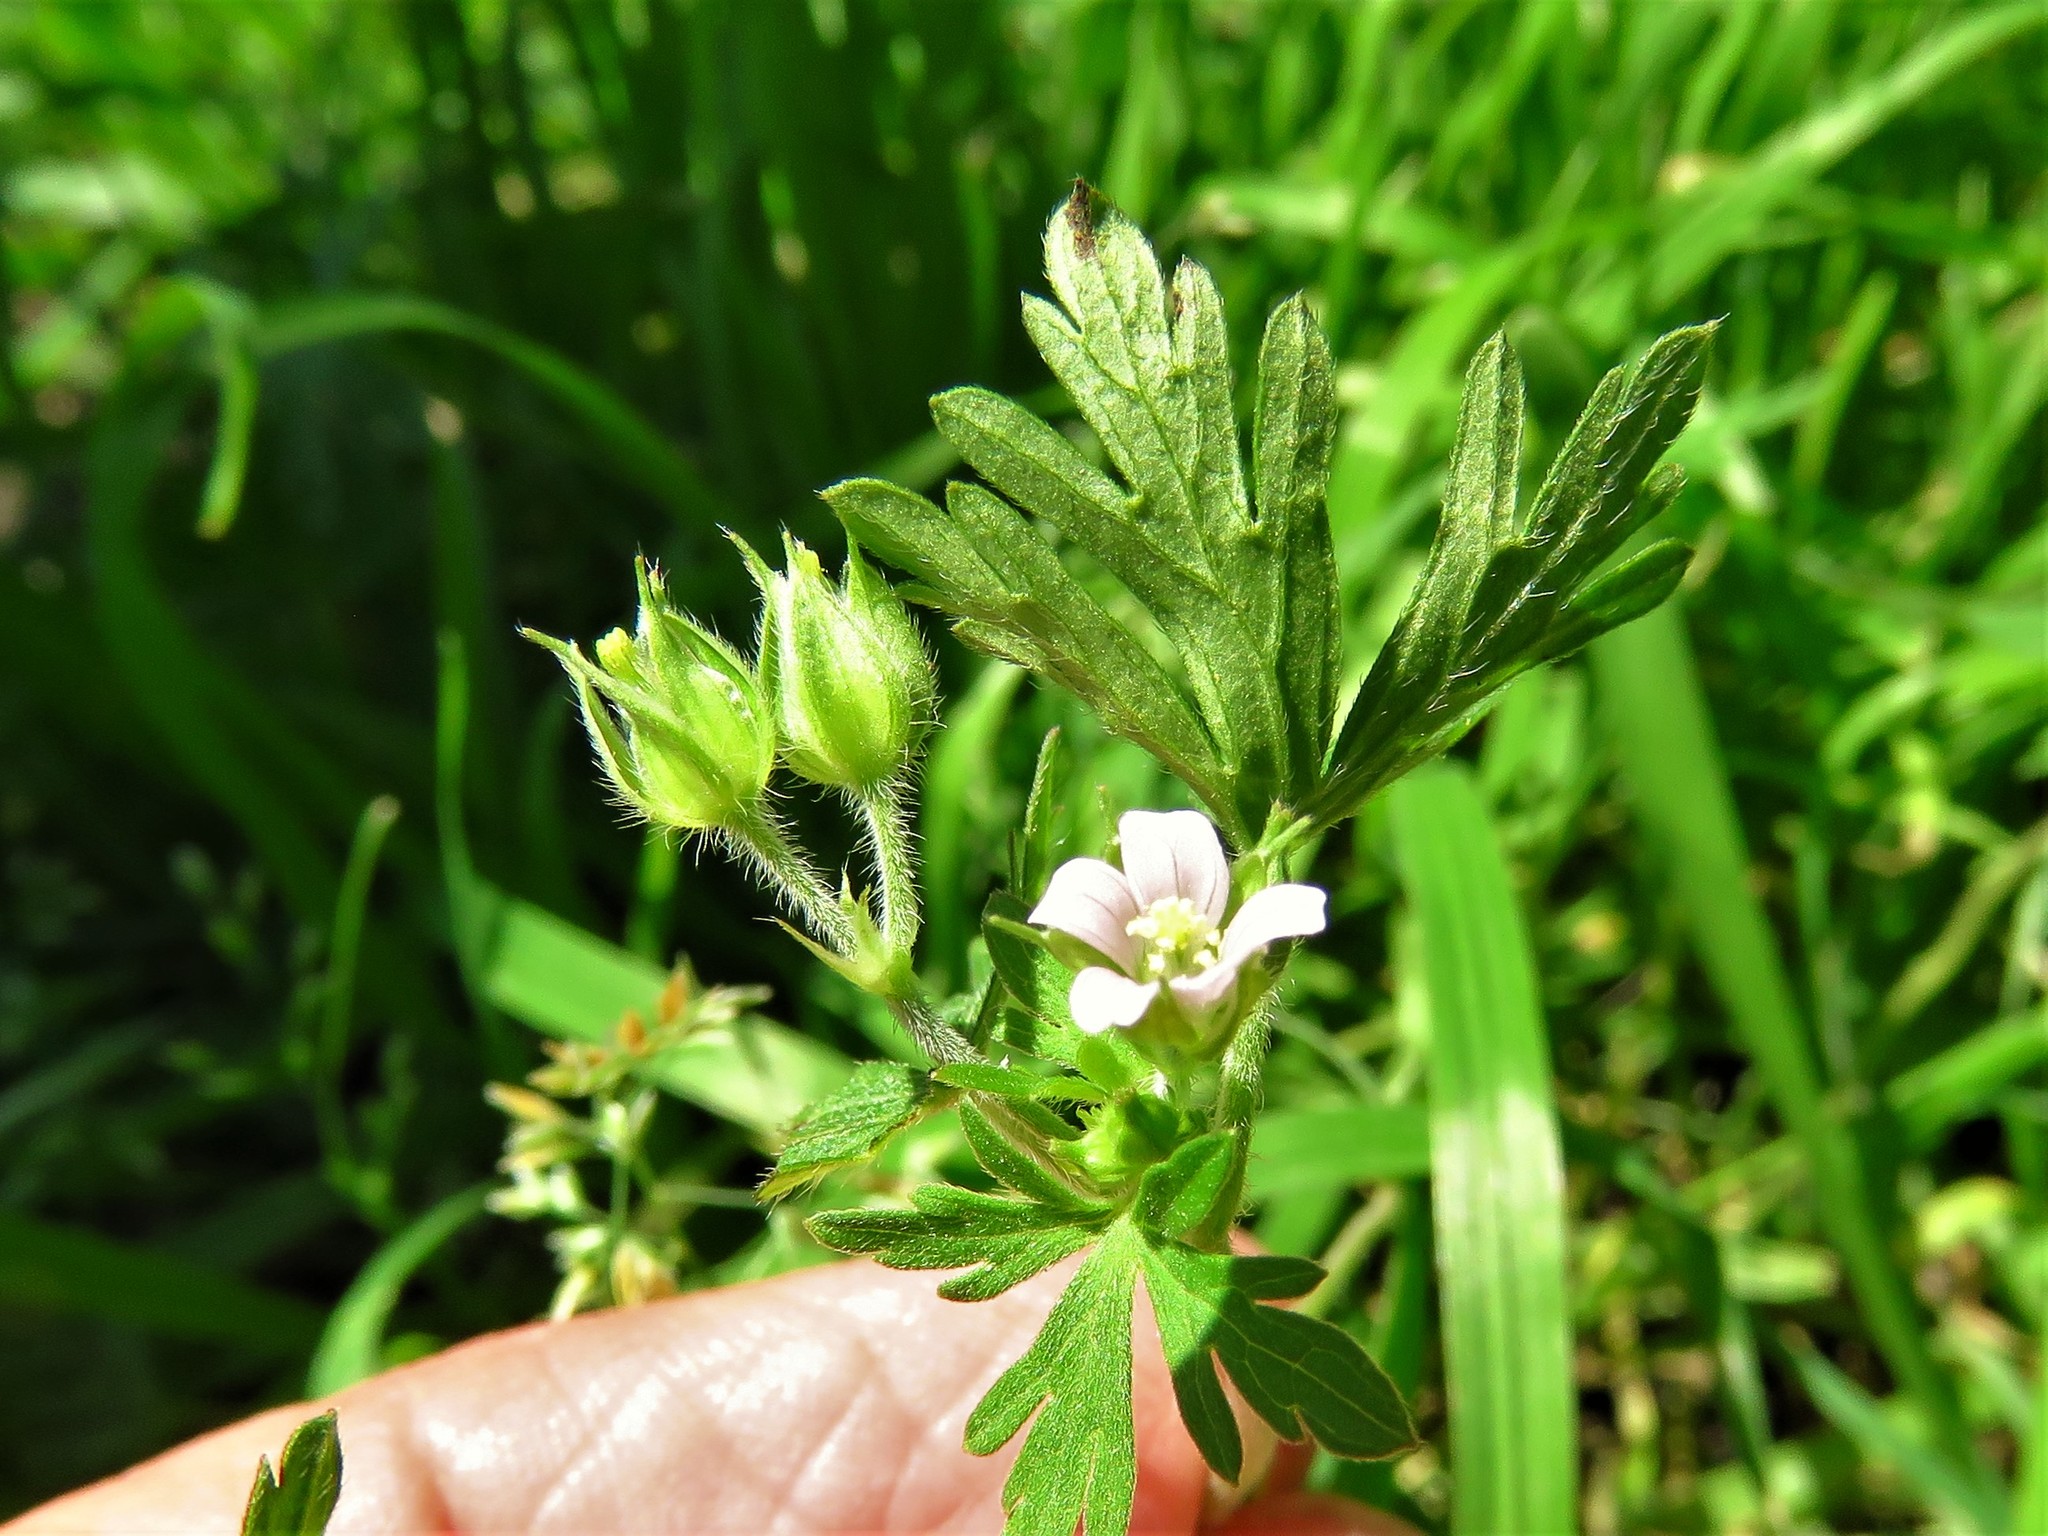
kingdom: Plantae
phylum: Tracheophyta
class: Magnoliopsida
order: Geraniales
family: Geraniaceae
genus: Geranium
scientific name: Geranium carolinianum
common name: Carolina crane's-bill
